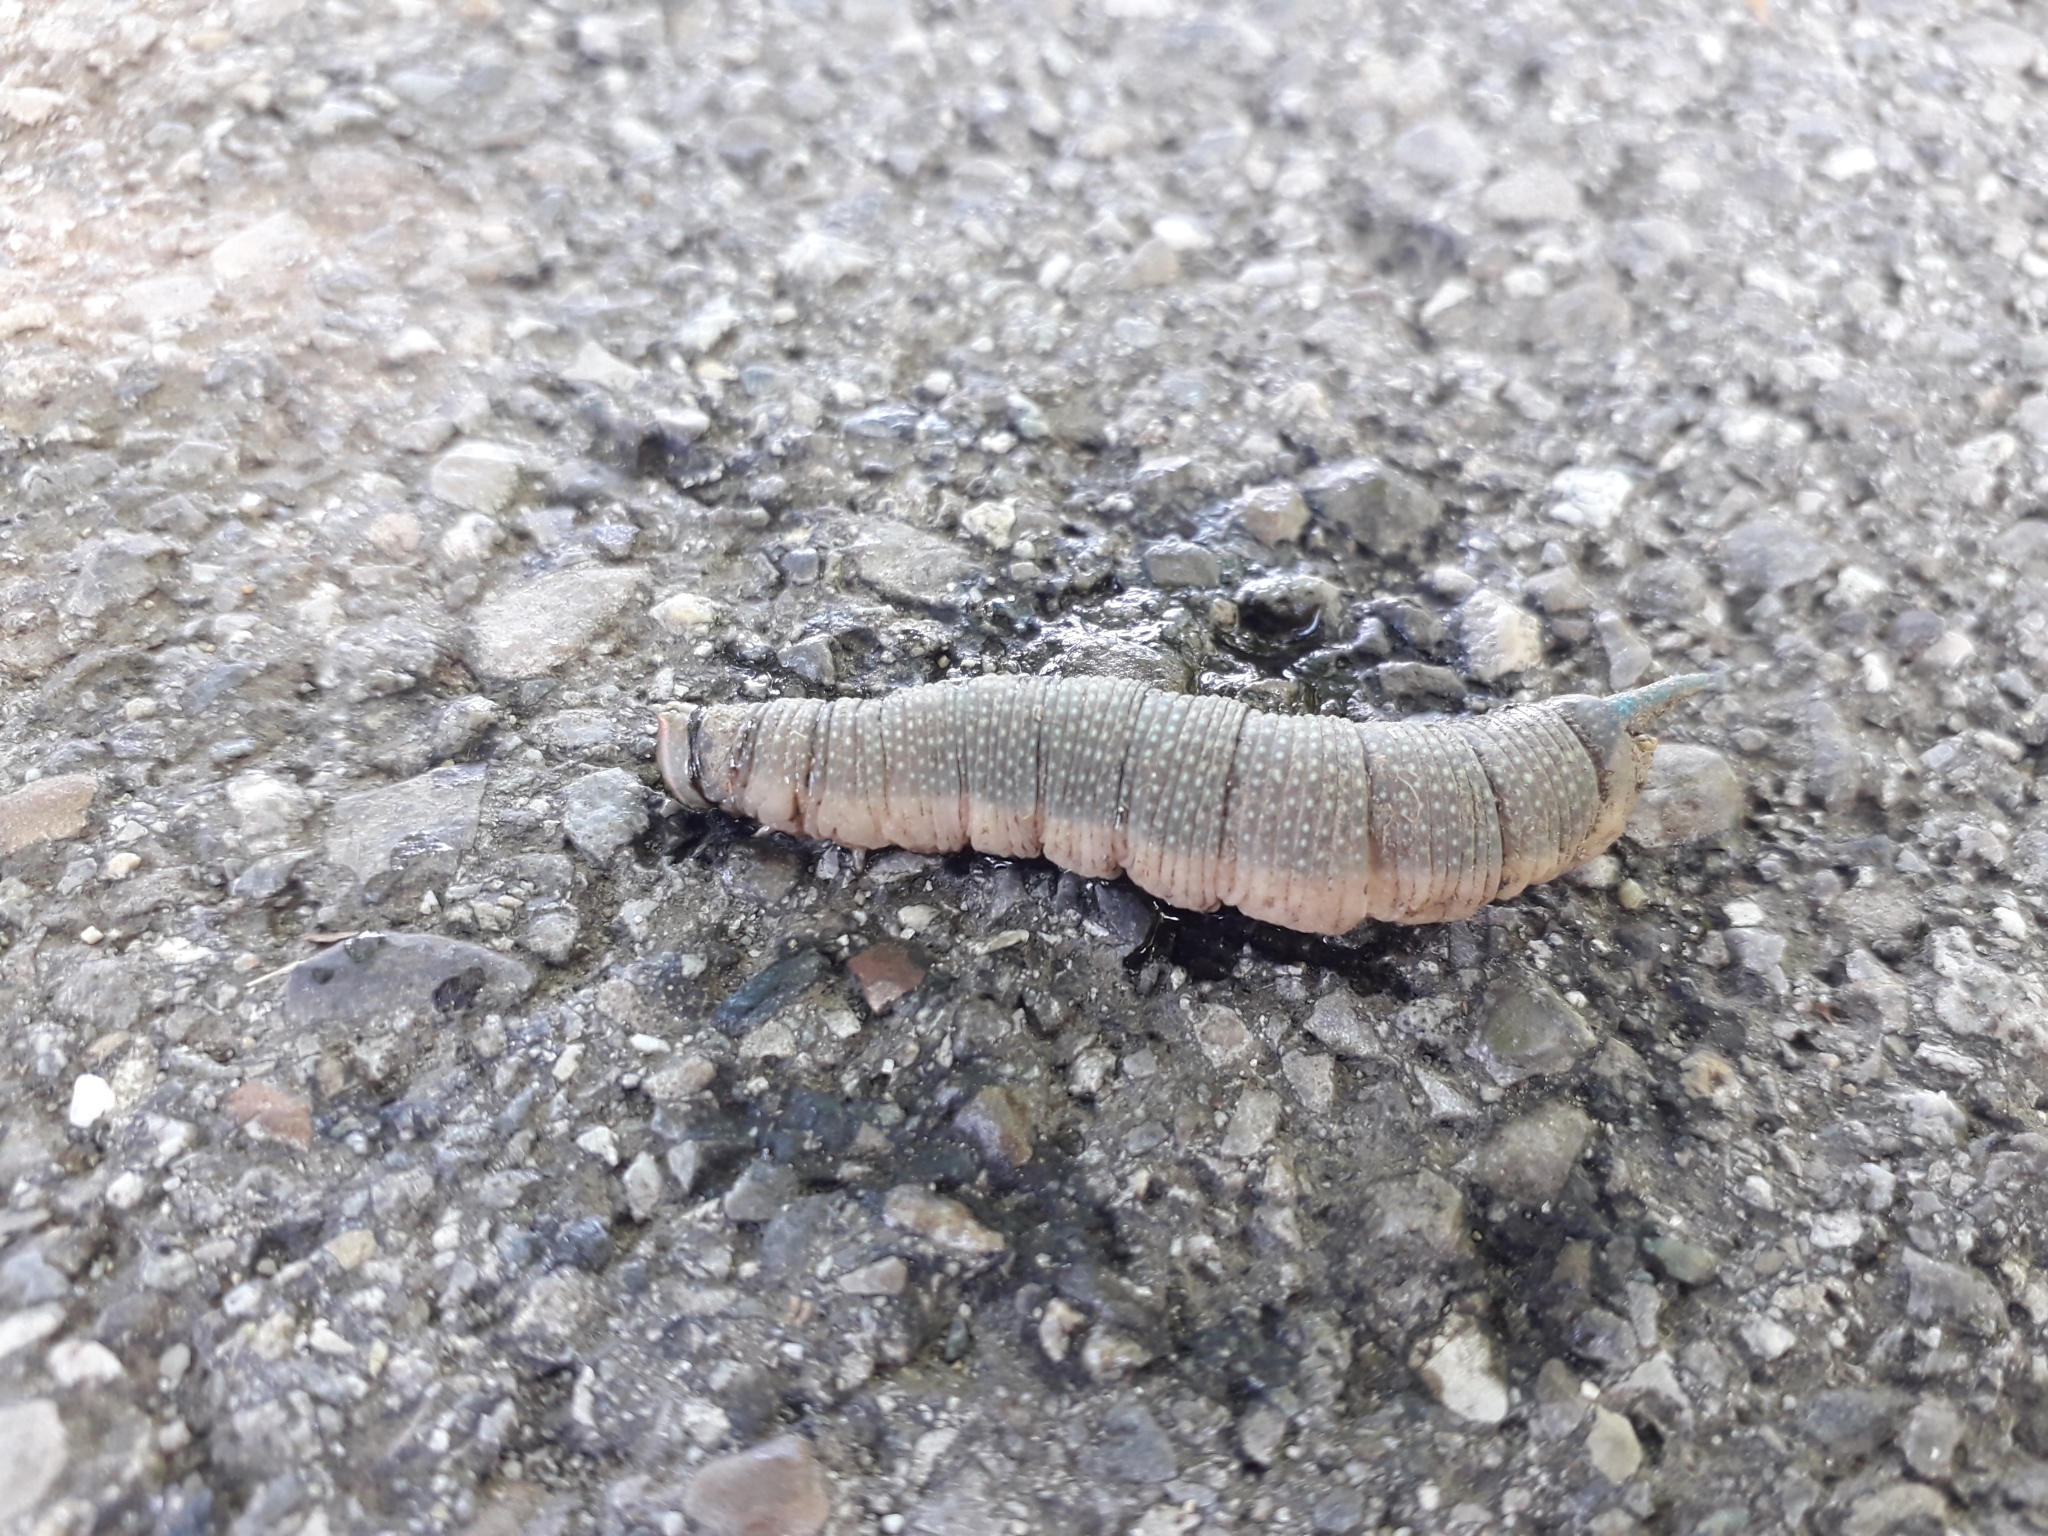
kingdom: Animalia
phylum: Arthropoda
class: Insecta
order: Lepidoptera
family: Sphingidae
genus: Mimas
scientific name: Mimas tiliae
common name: Lime hawk-moth
